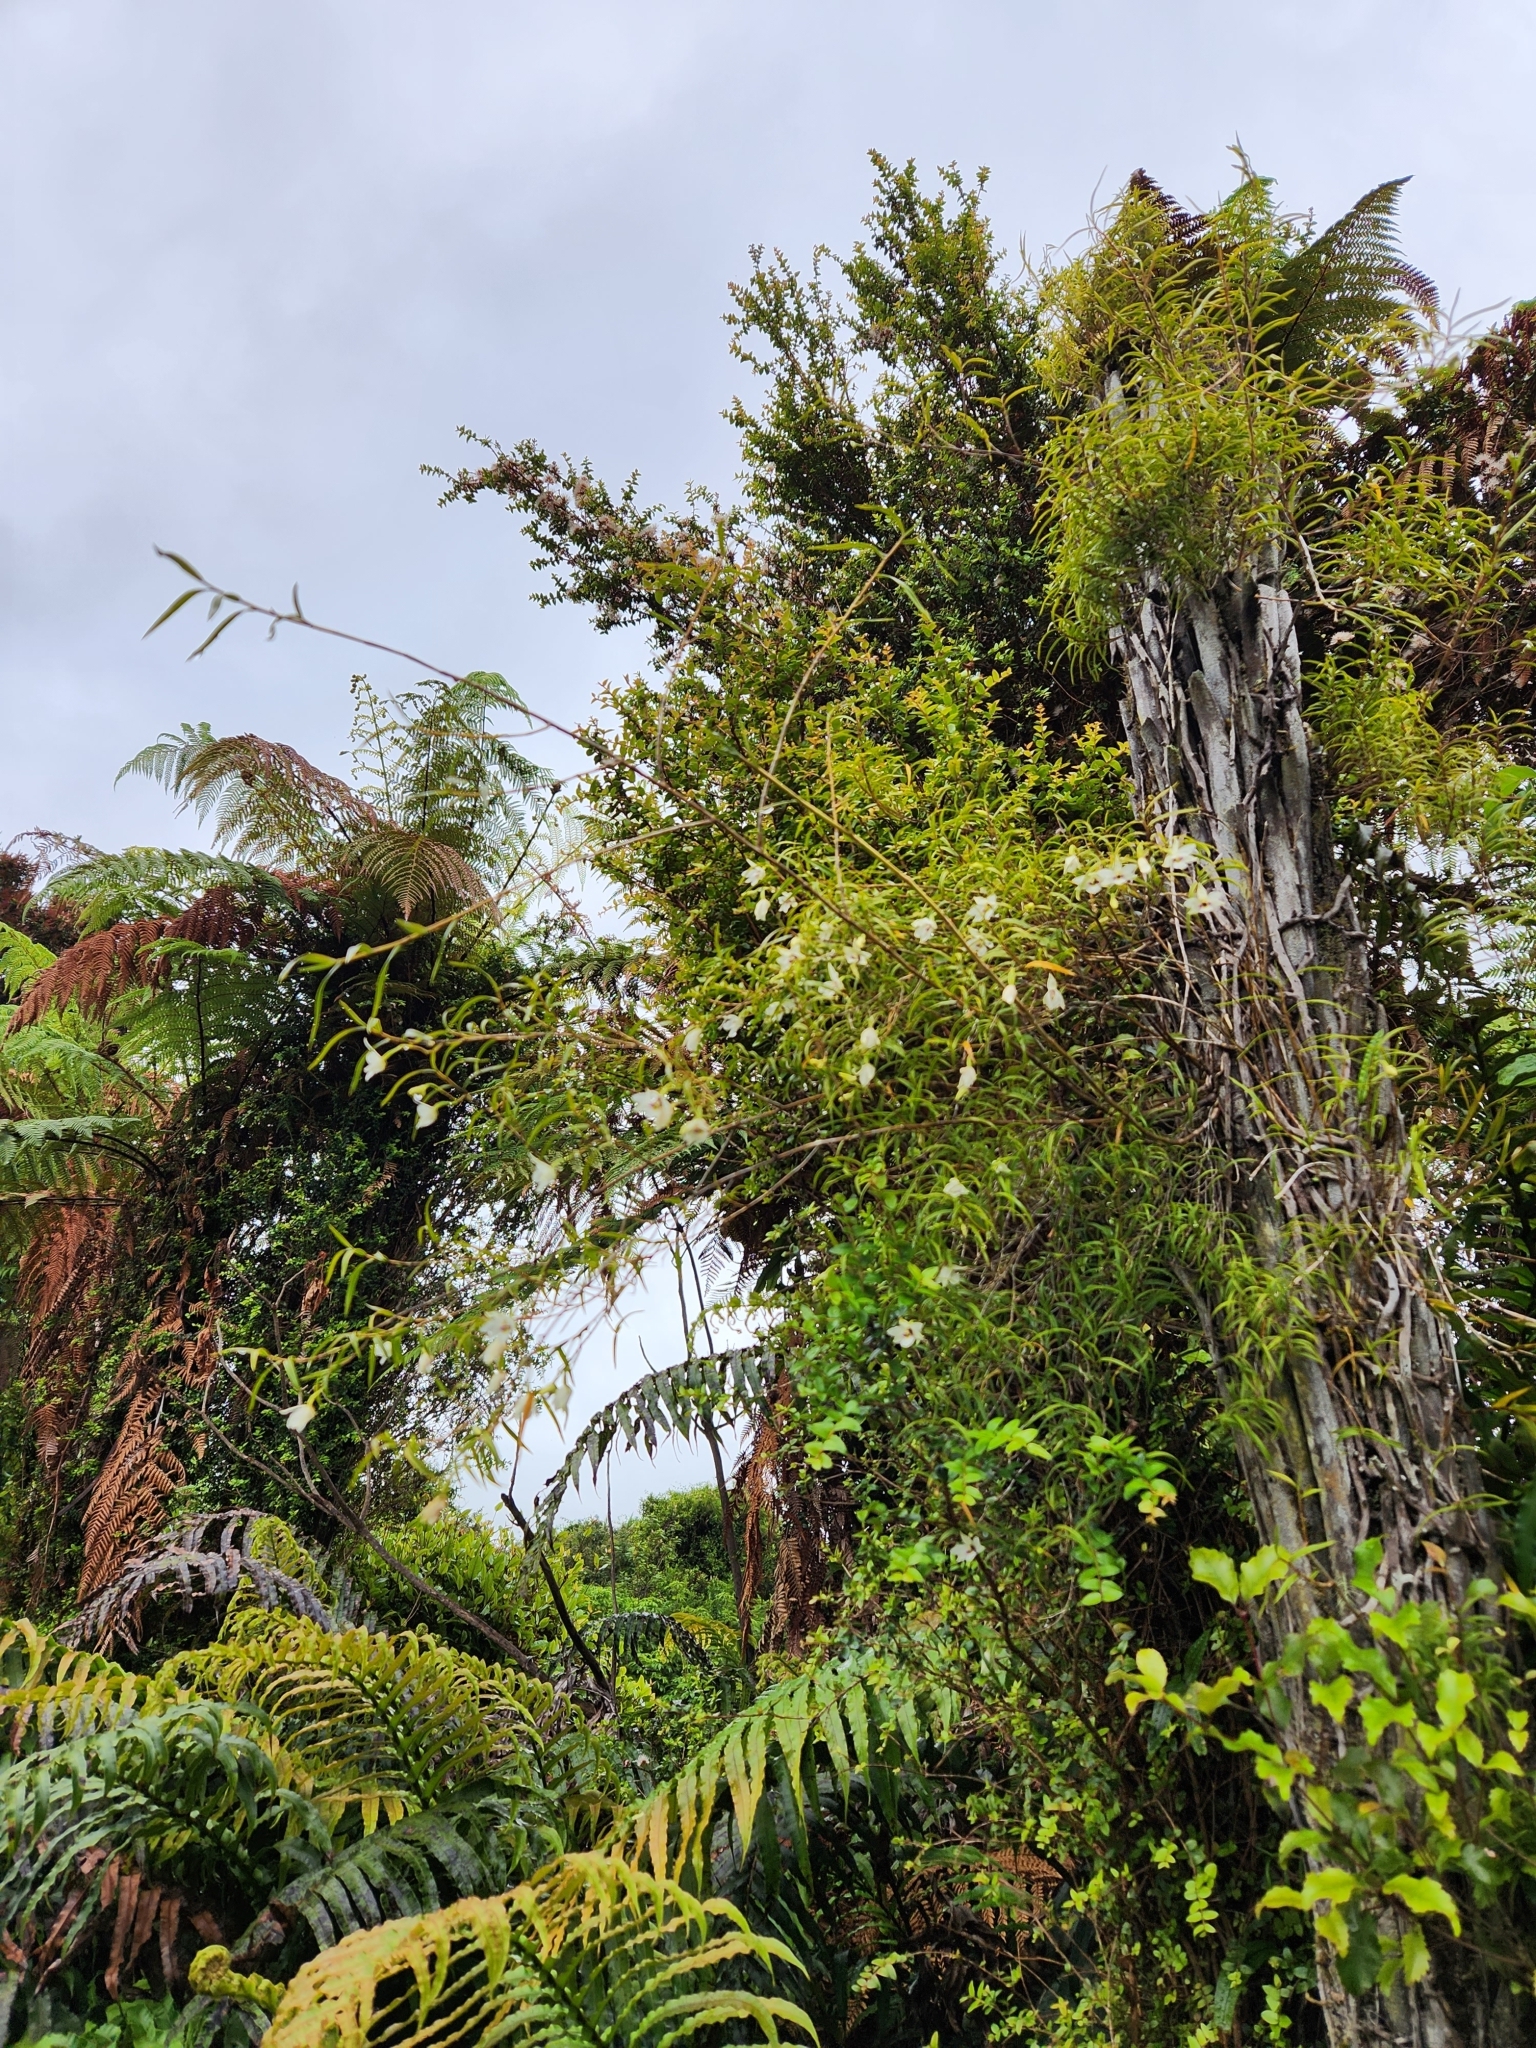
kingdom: Plantae
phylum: Tracheophyta
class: Liliopsida
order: Asparagales
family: Orchidaceae
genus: Dendrobium
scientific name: Dendrobium cunninghamii
